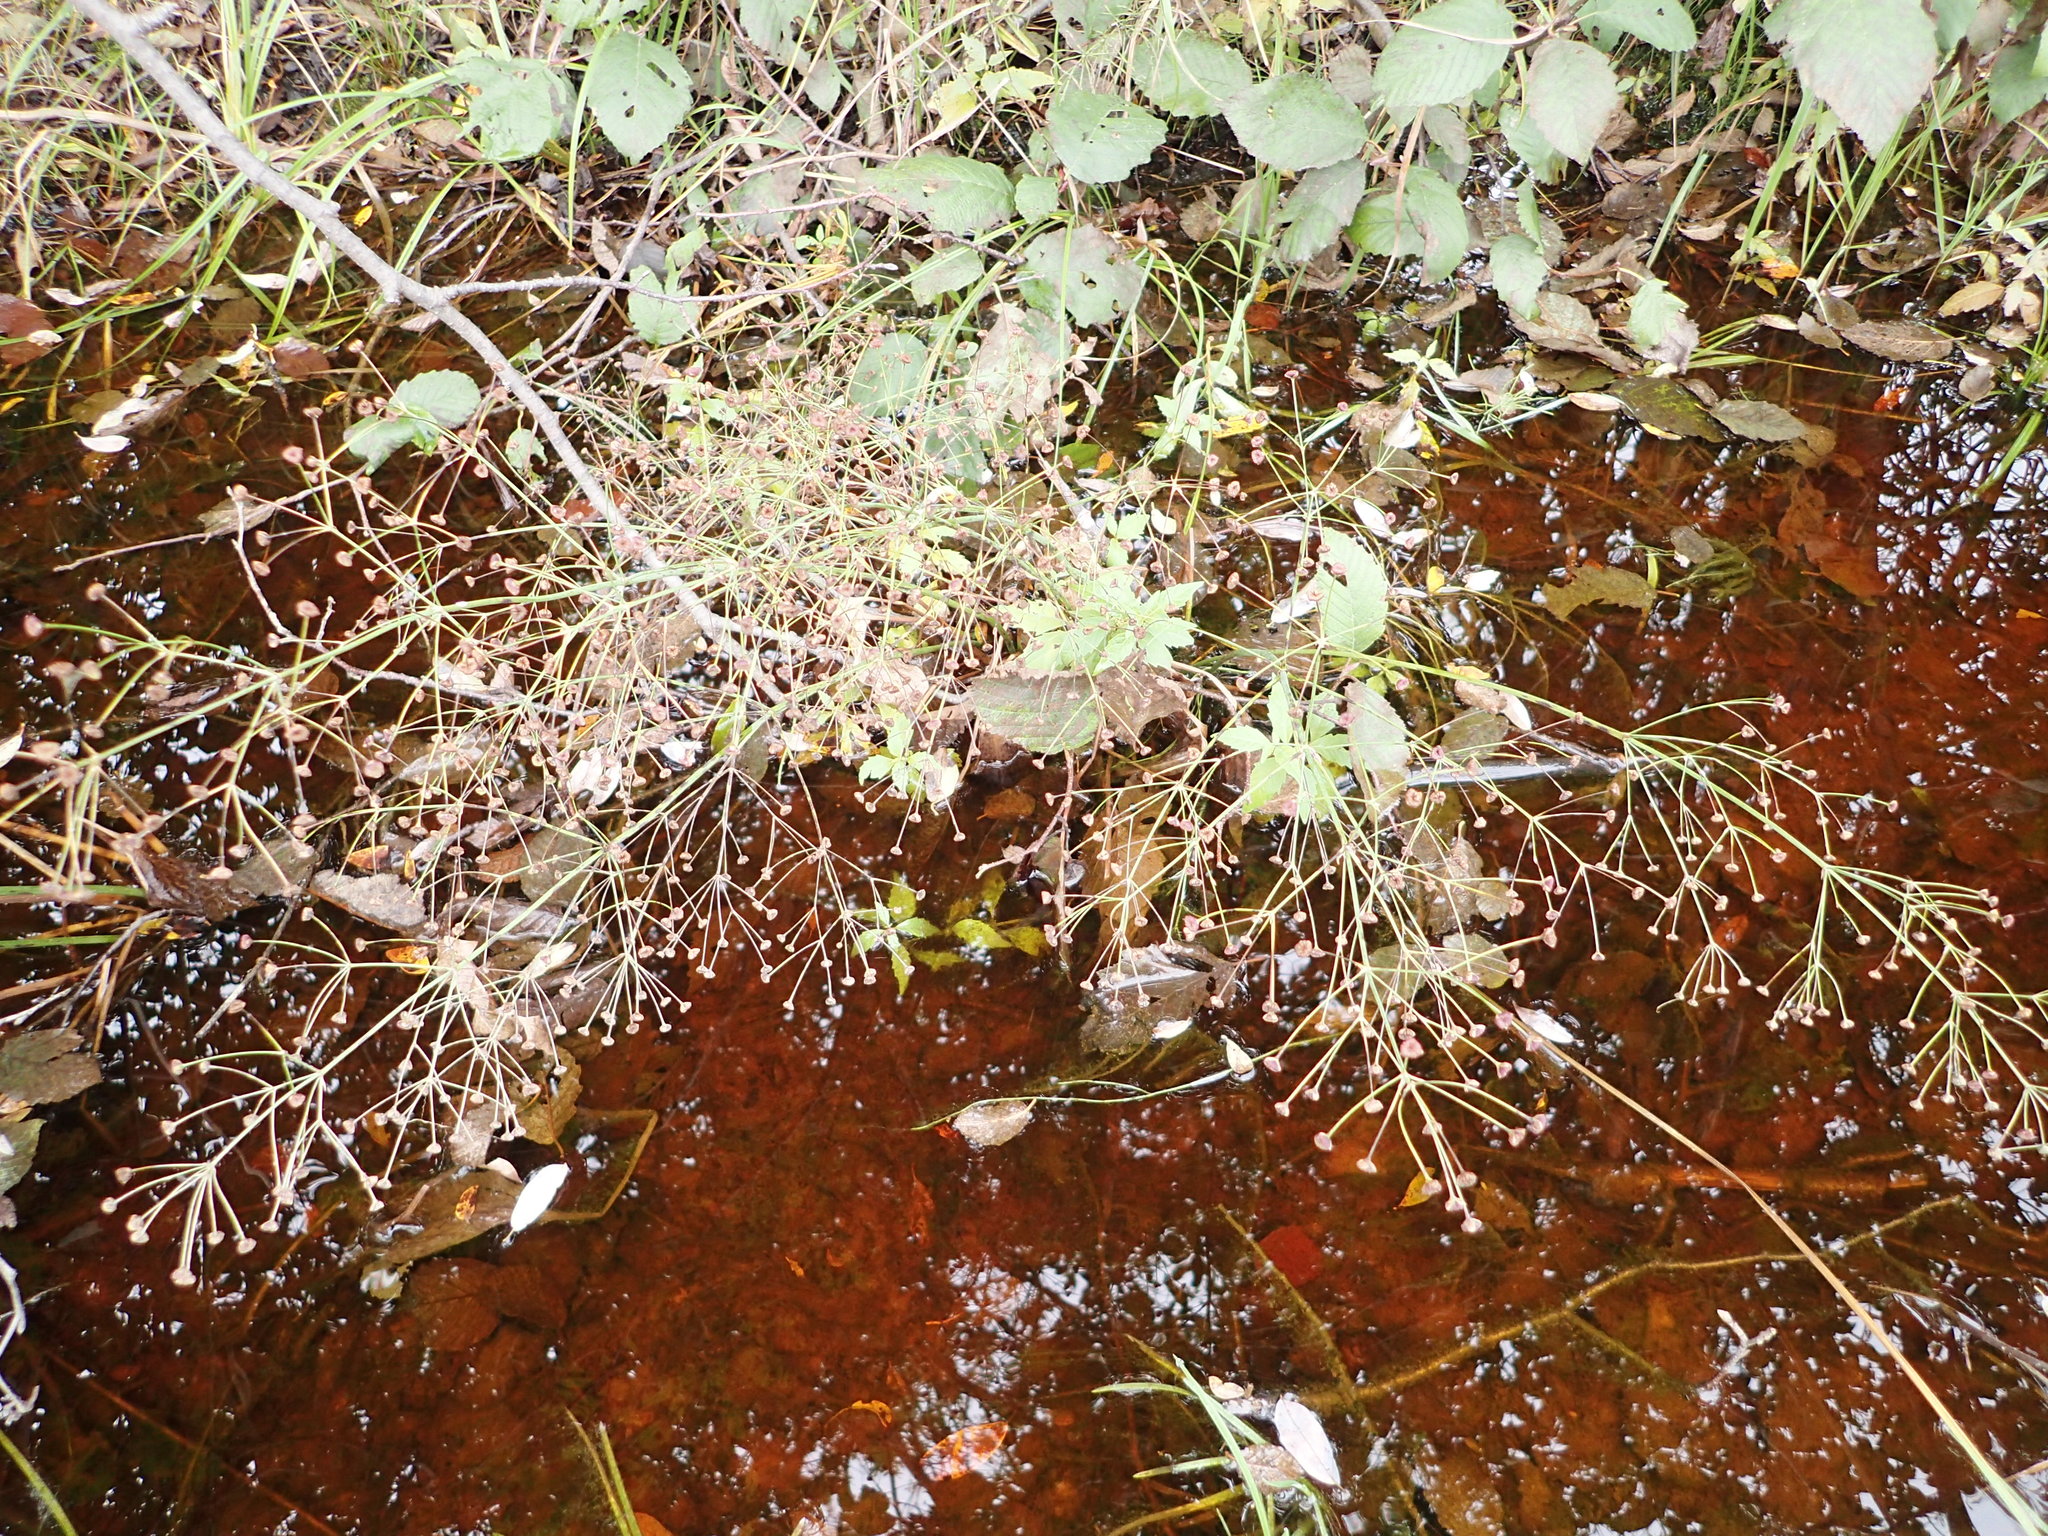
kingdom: Plantae
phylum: Tracheophyta
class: Liliopsida
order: Alismatales
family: Alismataceae
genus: Alisma
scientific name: Alisma triviale
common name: Northern water-plantain
